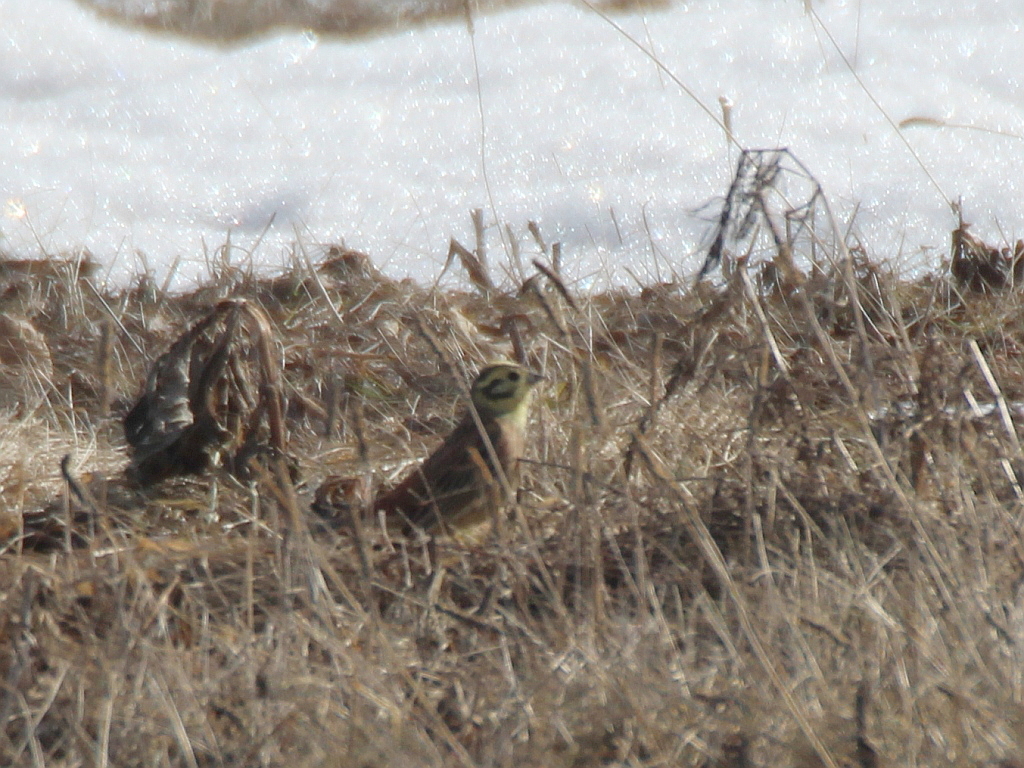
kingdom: Animalia
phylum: Chordata
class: Aves
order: Passeriformes
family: Emberizidae
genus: Emberiza
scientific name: Emberiza citrinella
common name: Yellowhammer
